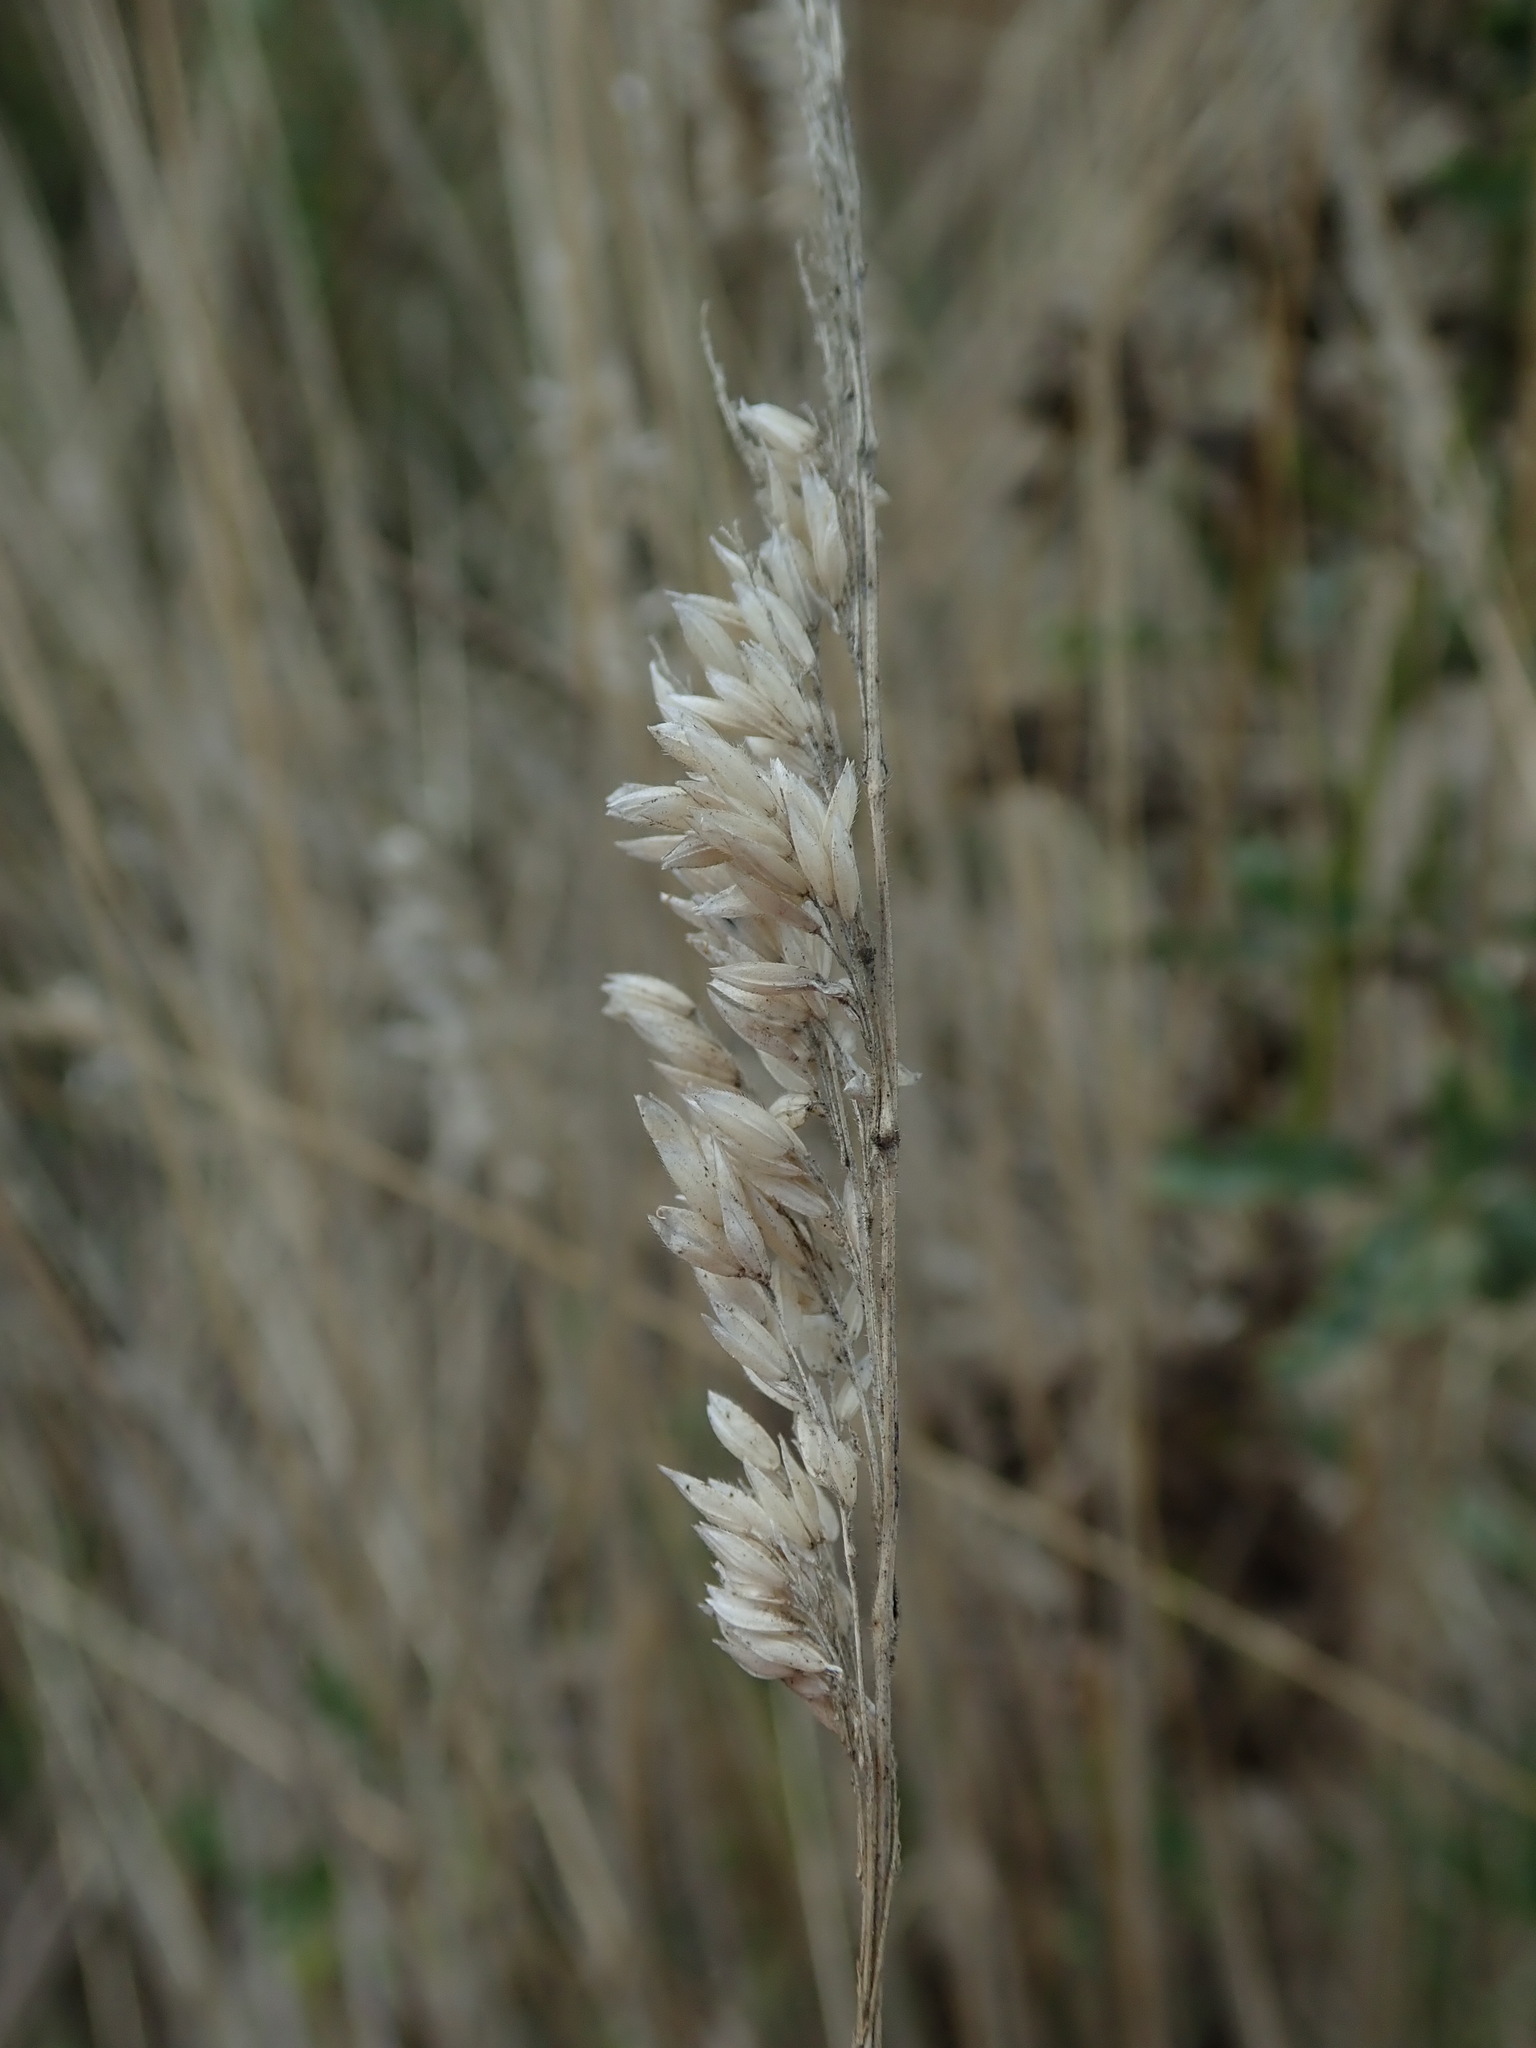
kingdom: Plantae
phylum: Tracheophyta
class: Liliopsida
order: Poales
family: Poaceae
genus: Holcus
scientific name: Holcus lanatus
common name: Yorkshire-fog
